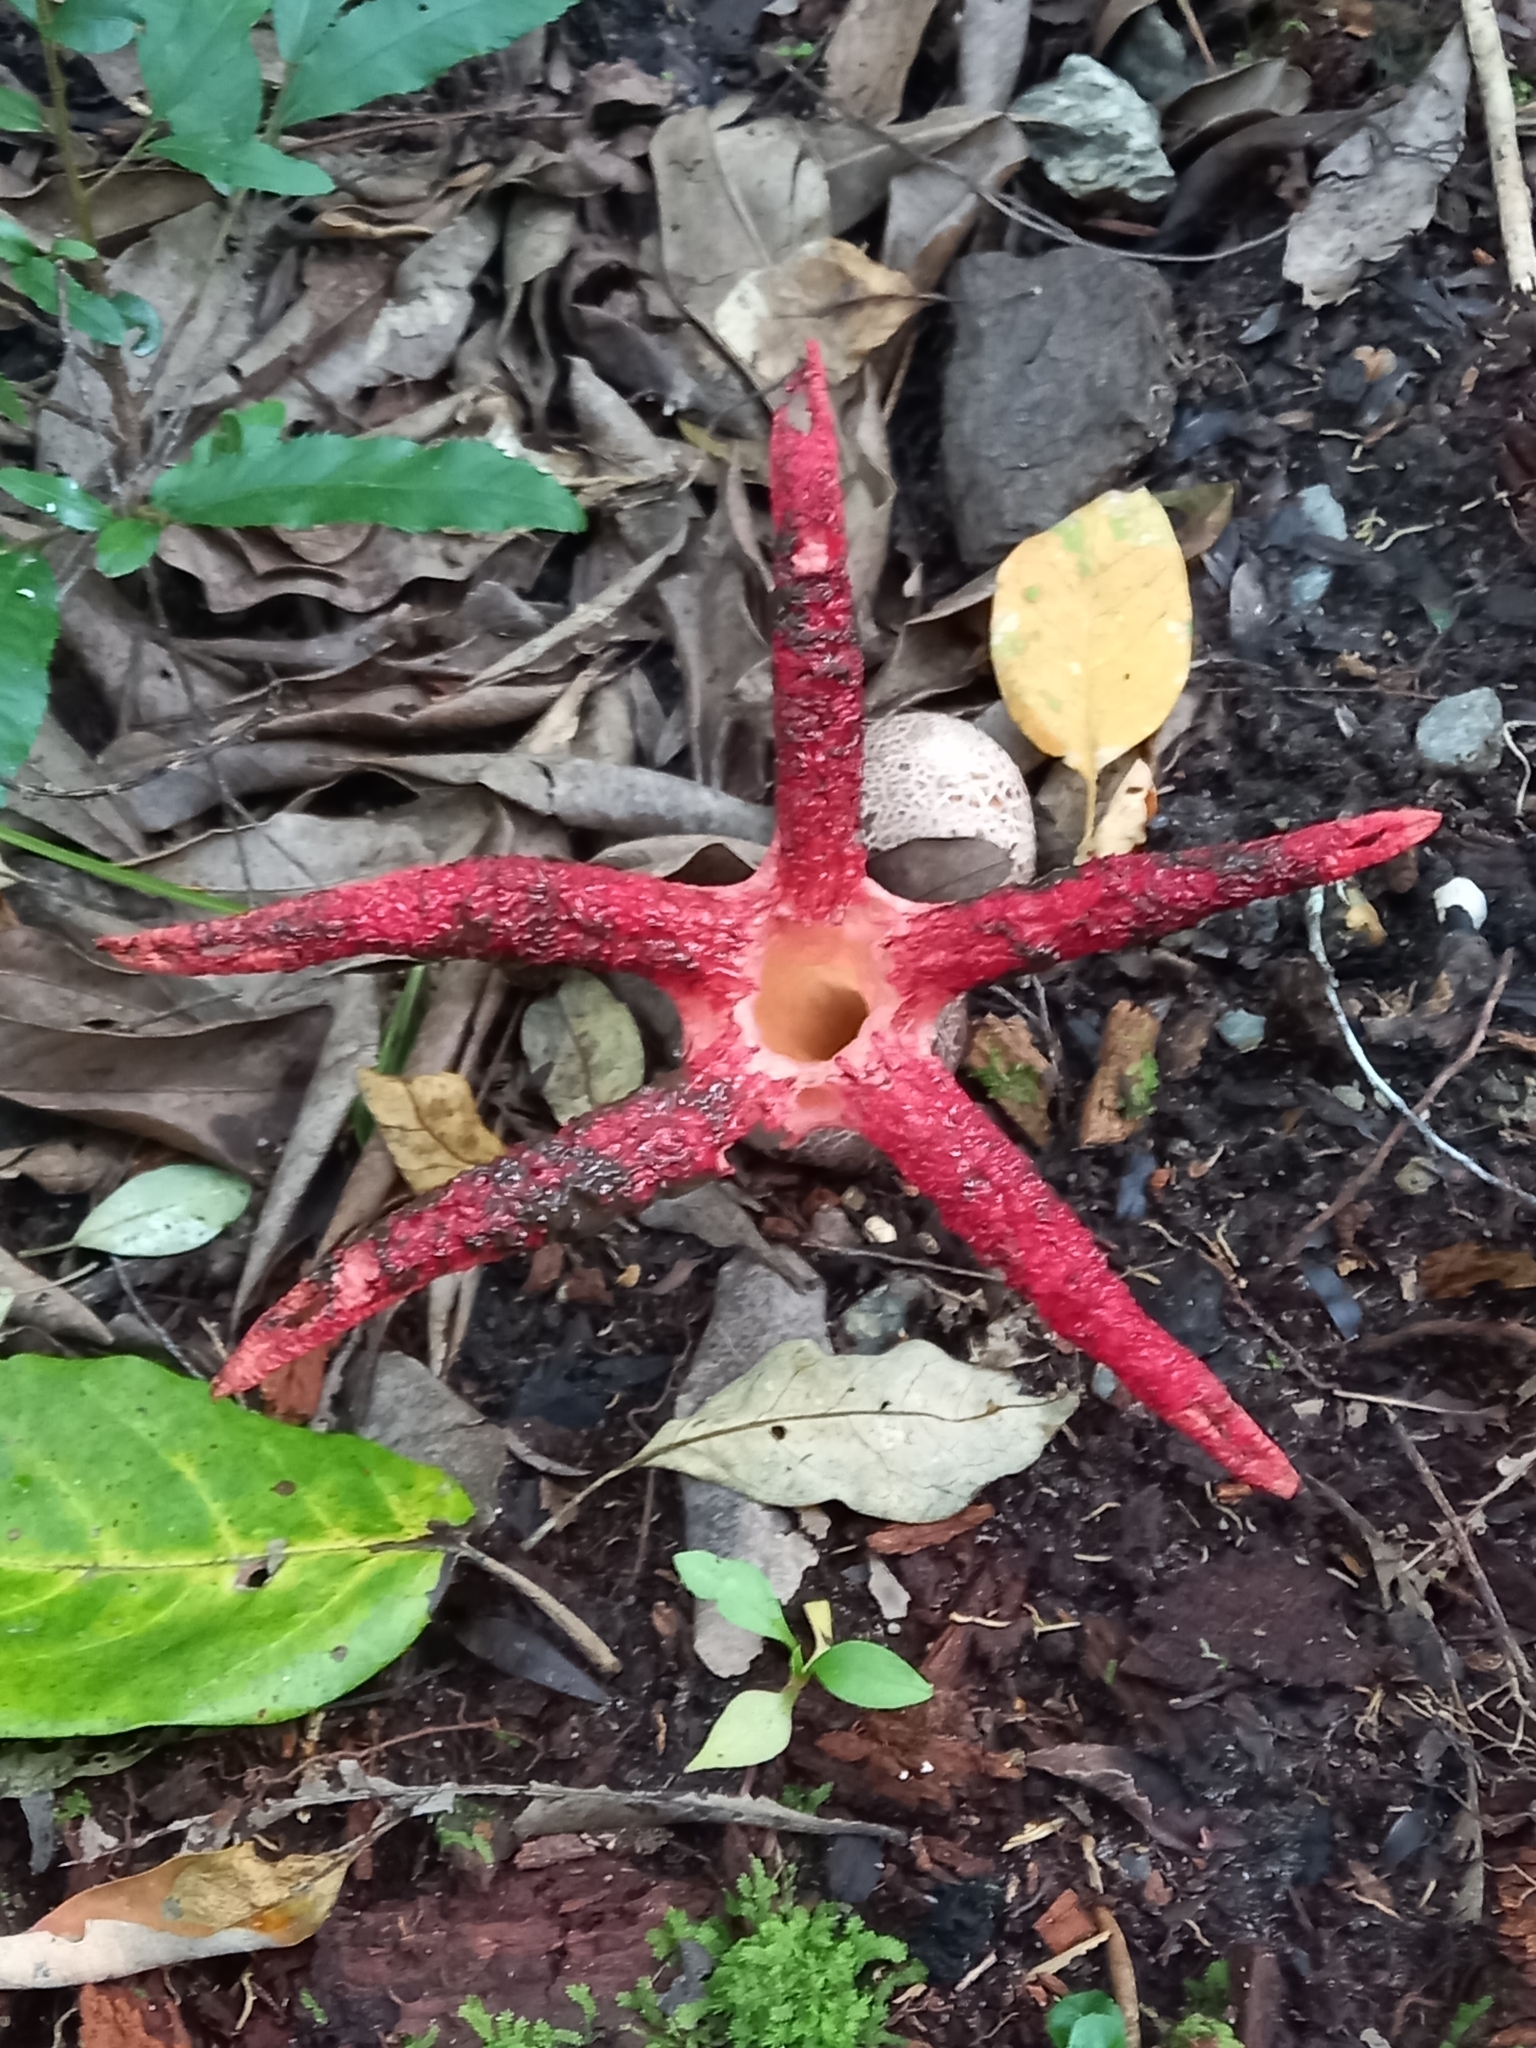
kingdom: Fungi
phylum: Basidiomycota
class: Agaricomycetes
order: Phallales
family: Phallaceae
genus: Clathrus
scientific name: Clathrus archeri
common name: Devil's fingers
